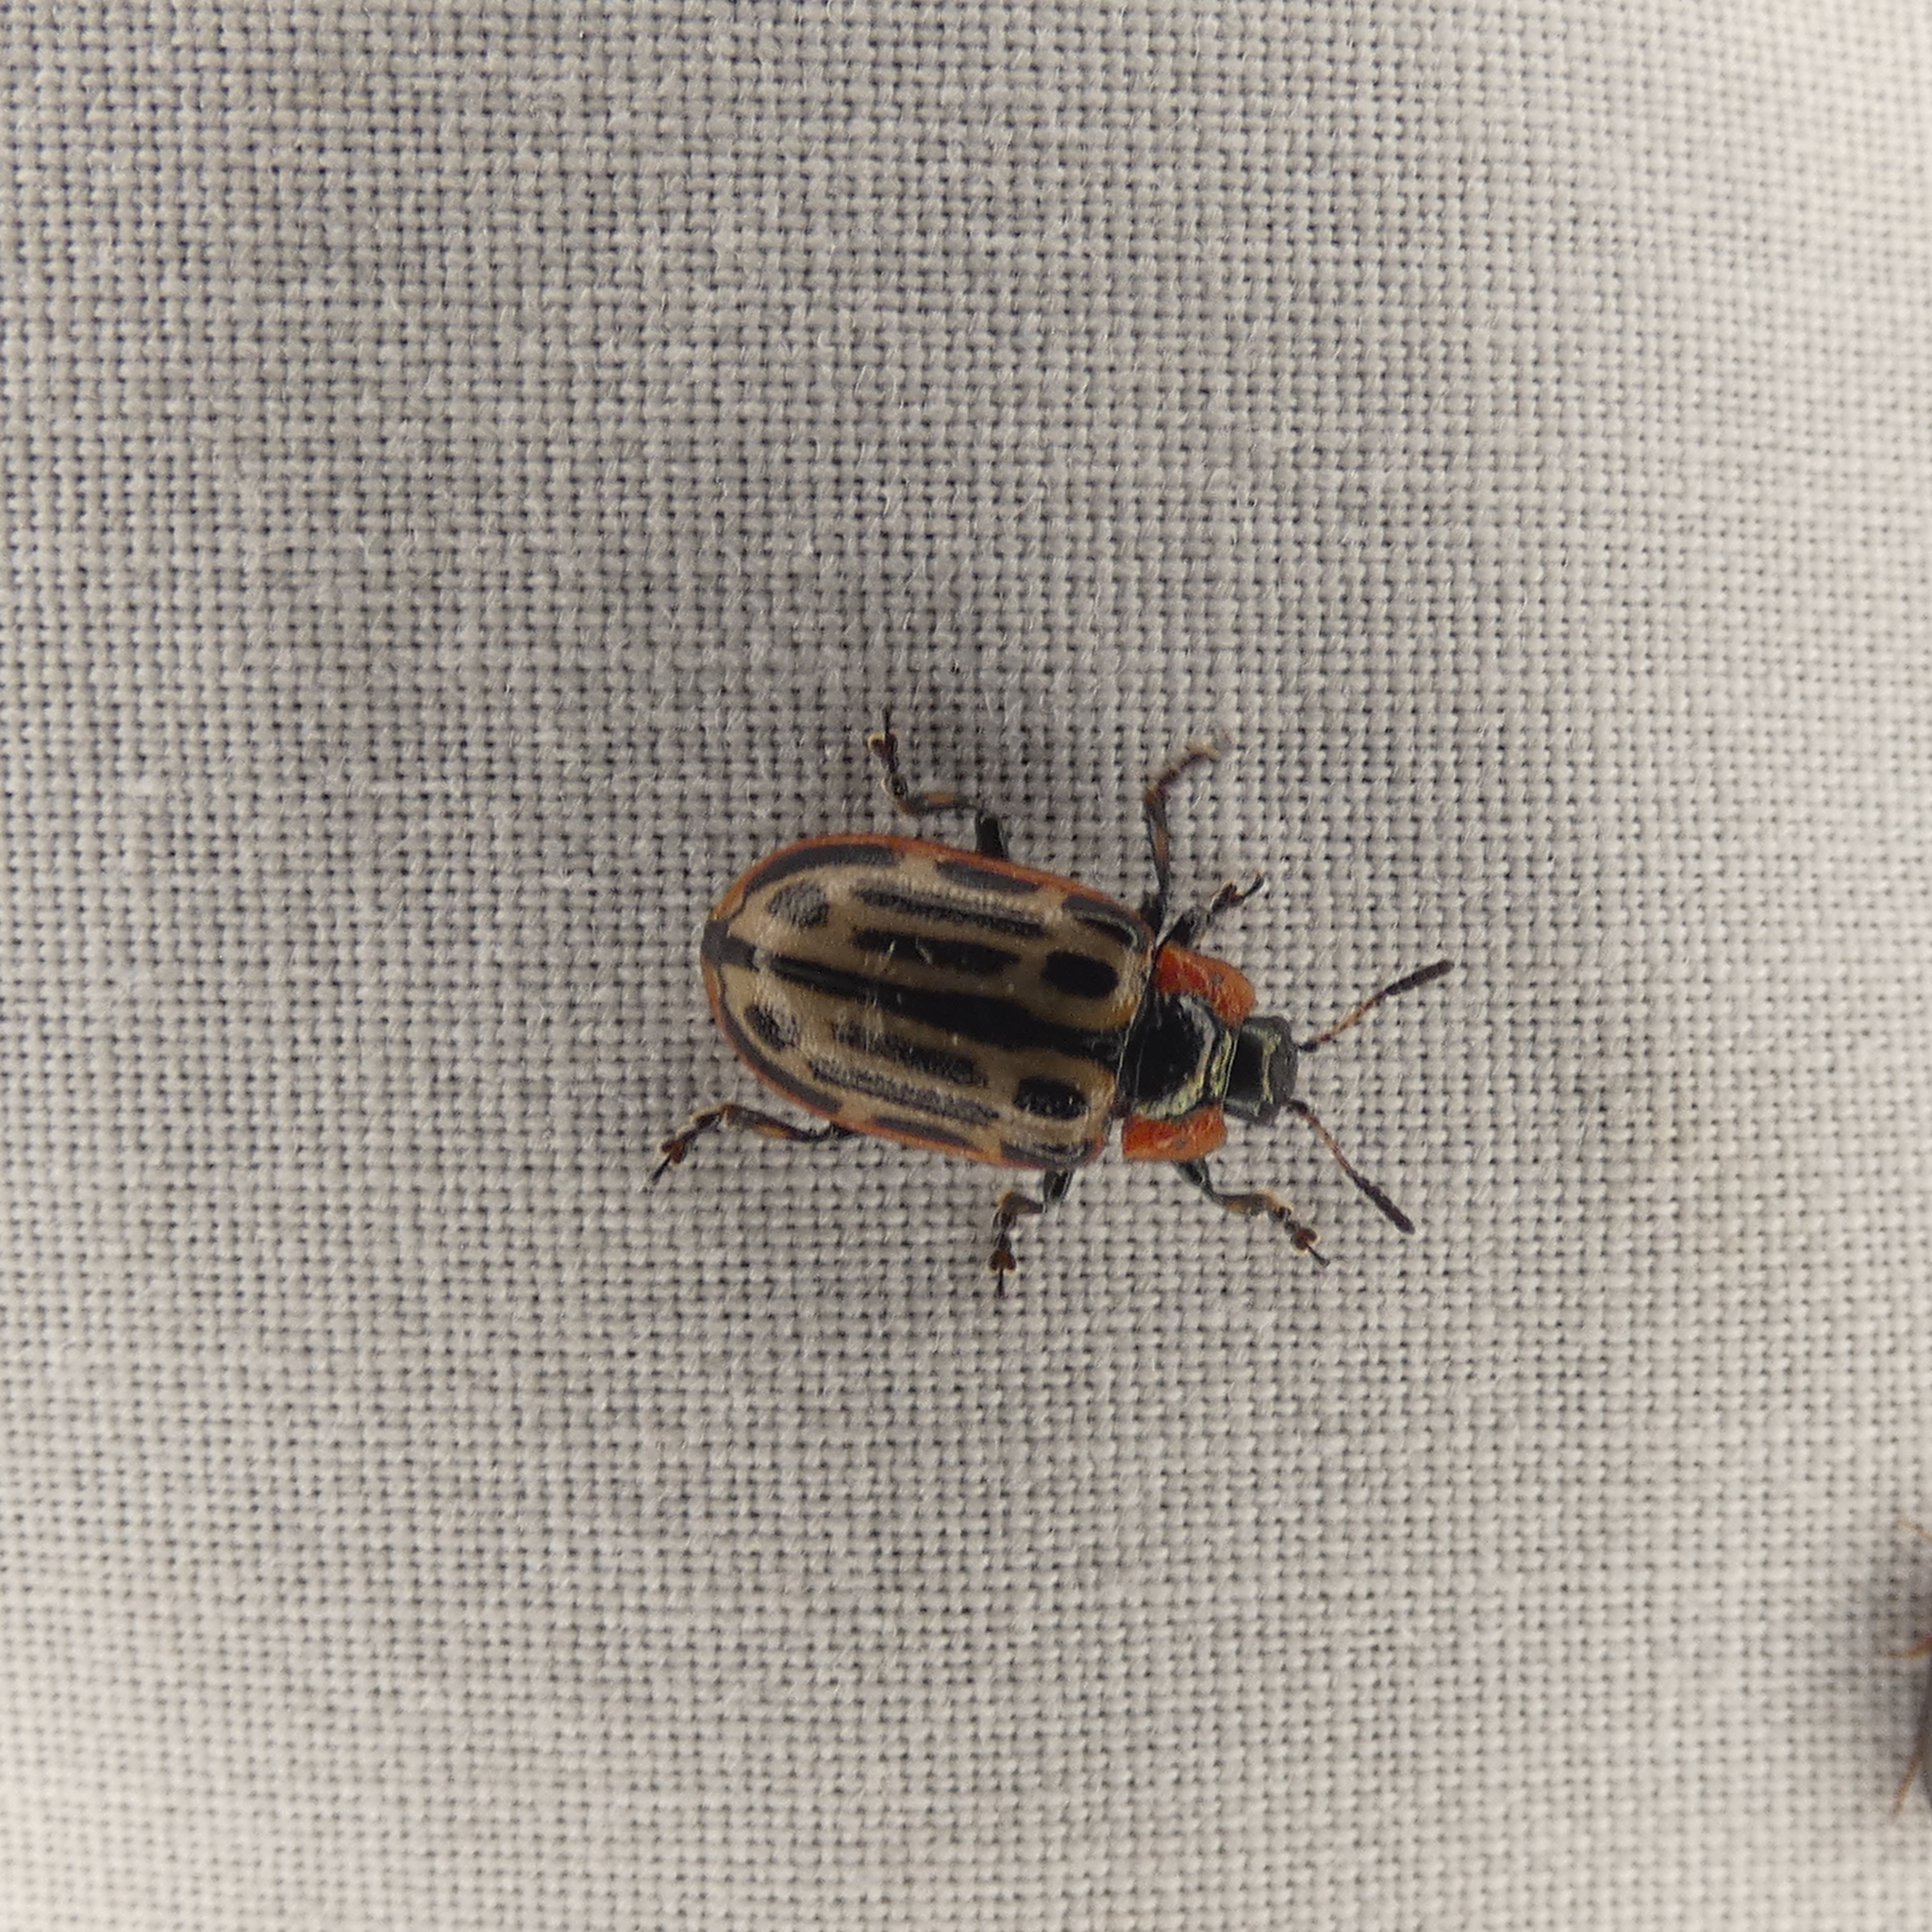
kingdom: Animalia
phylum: Arthropoda
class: Insecta
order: Coleoptera
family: Chrysomelidae
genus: Aethiopocassis
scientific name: Aethiopocassis scripta
